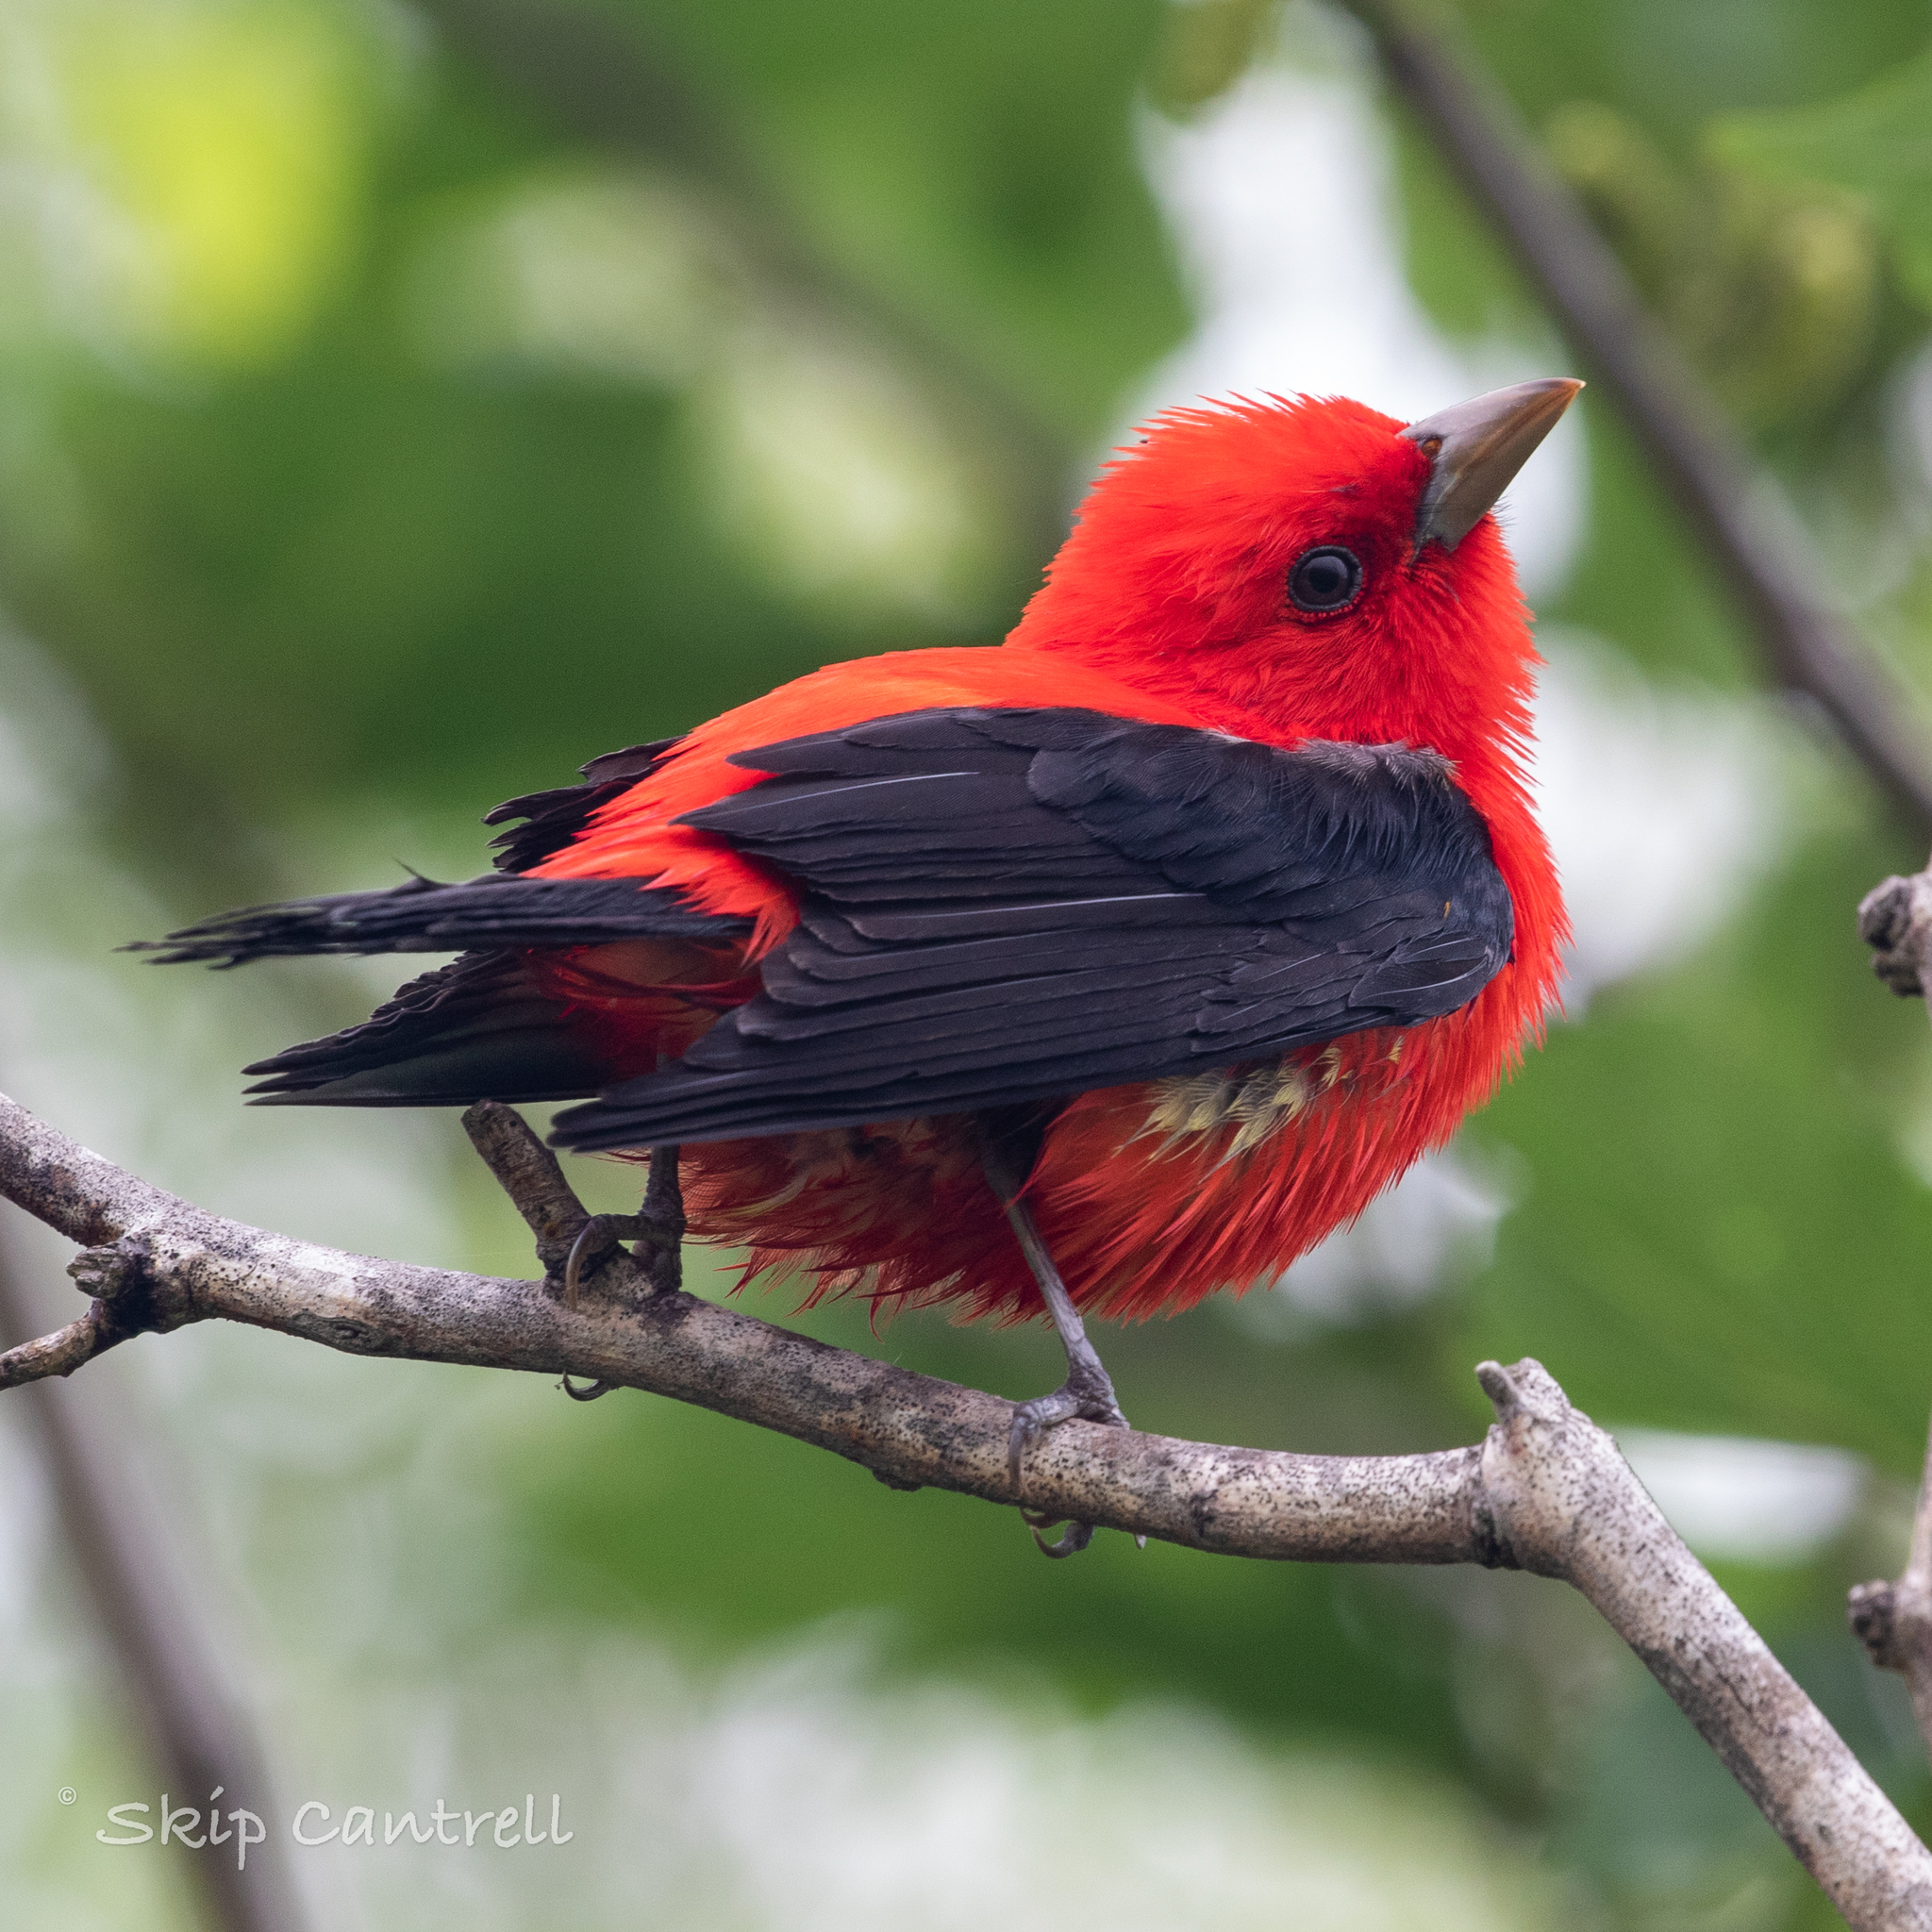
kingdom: Animalia
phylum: Chordata
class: Aves
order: Passeriformes
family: Cardinalidae
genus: Piranga
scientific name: Piranga olivacea
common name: Scarlet tanager
